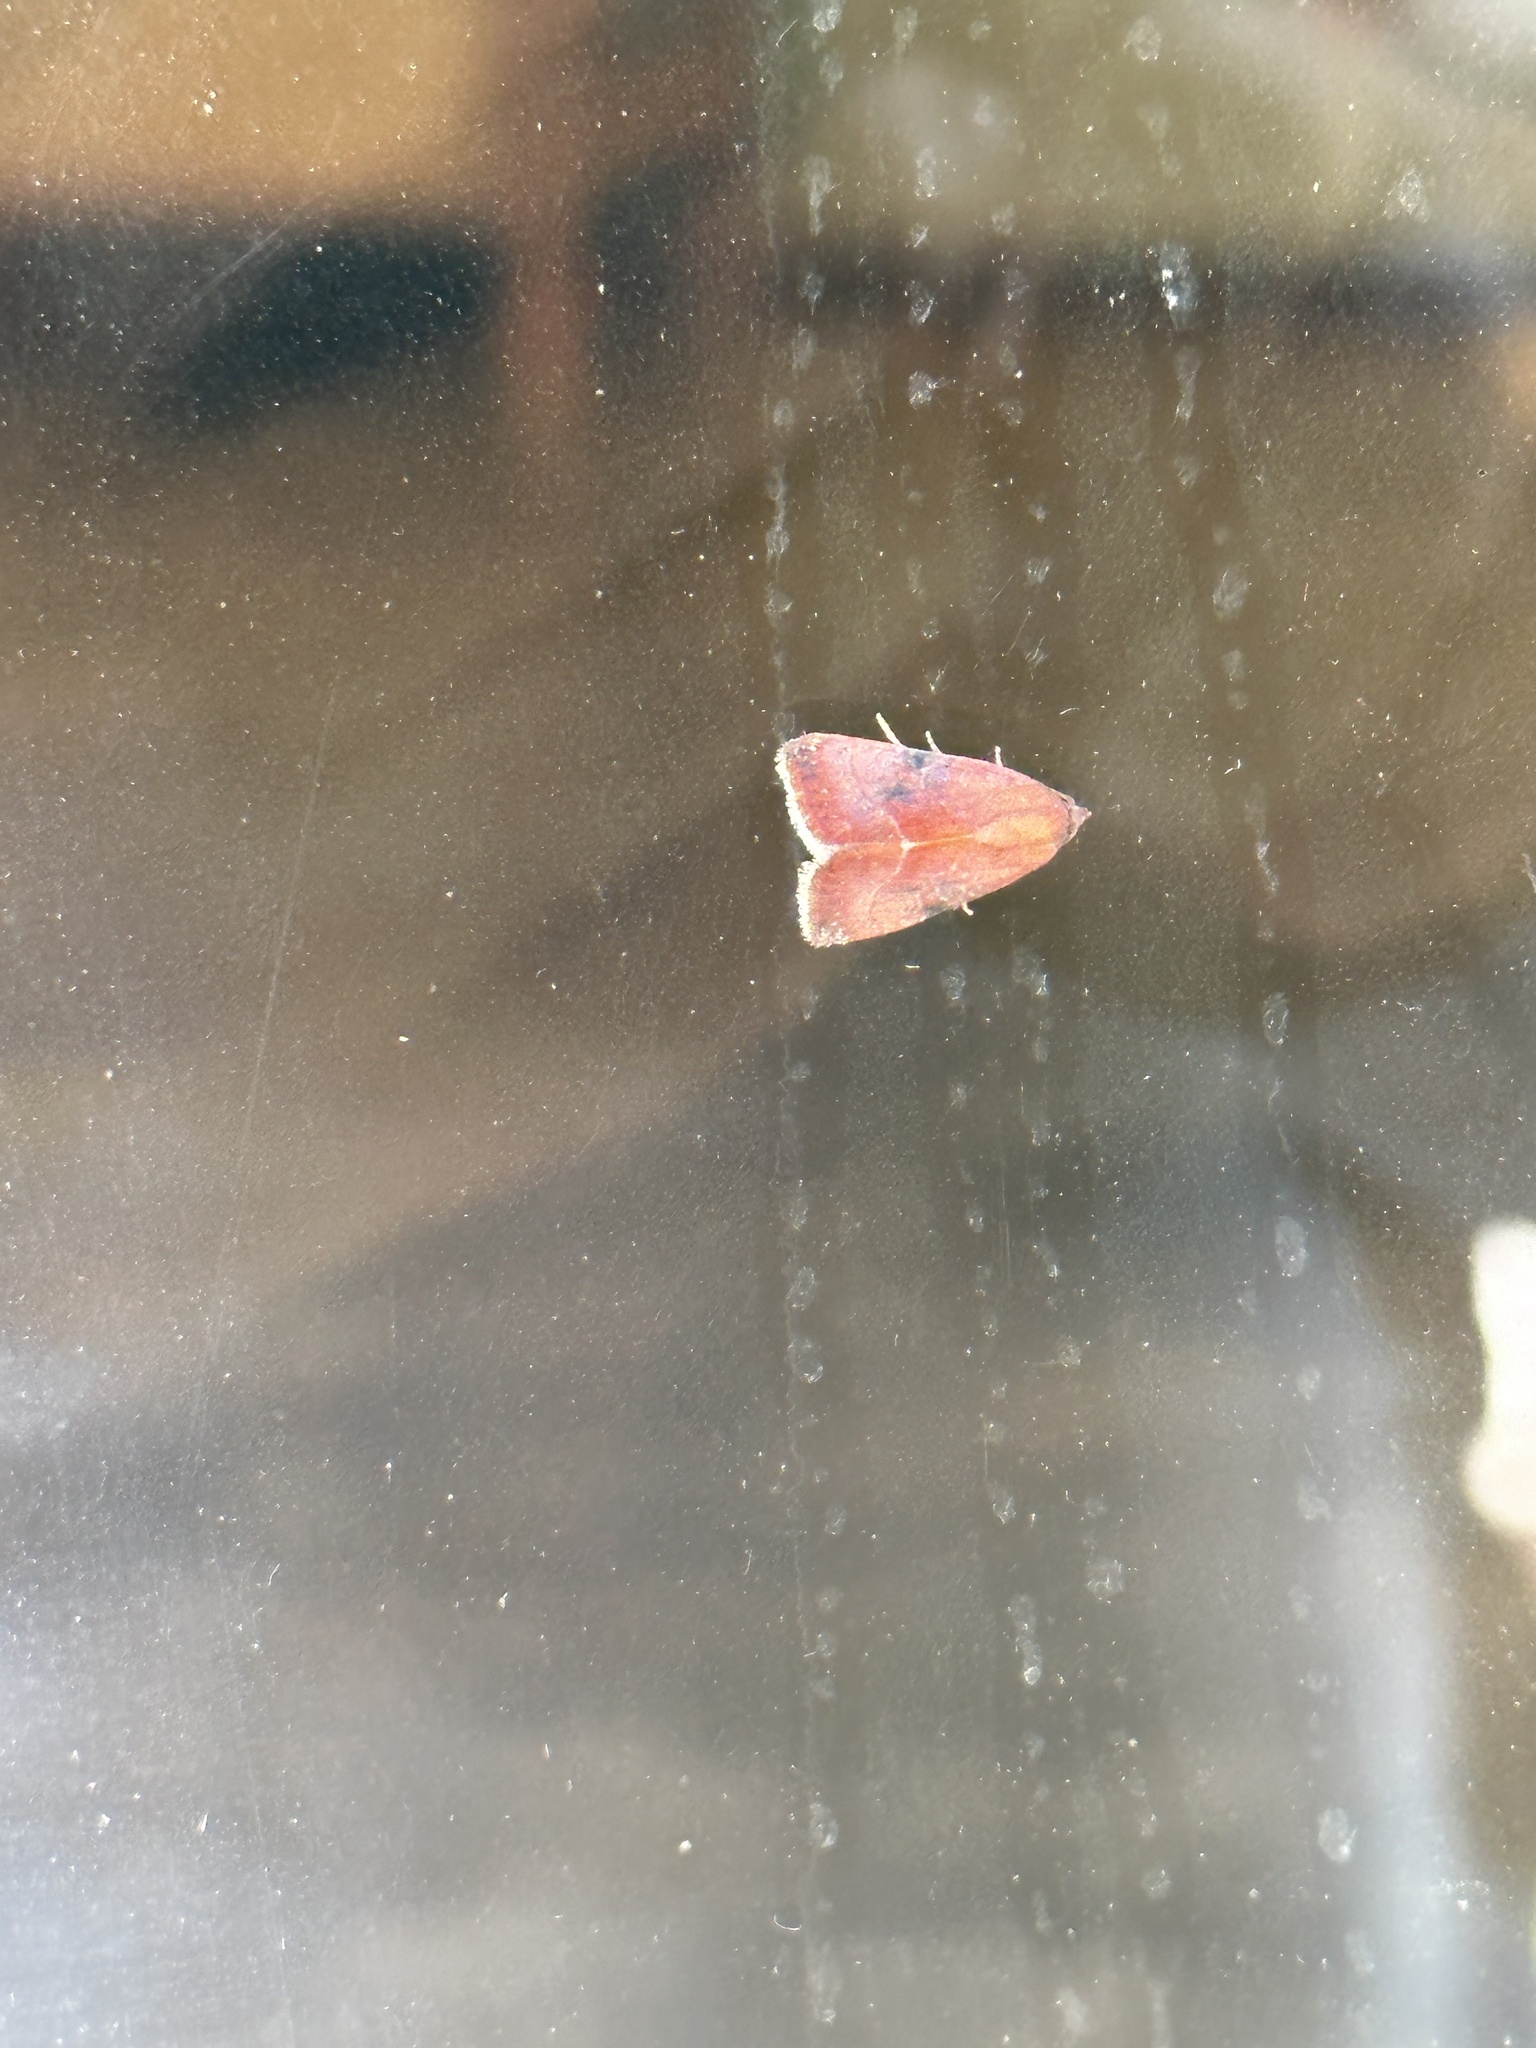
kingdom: Animalia
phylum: Arthropoda
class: Insecta
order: Lepidoptera
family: Noctuidae
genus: Galgula
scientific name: Galgula partita
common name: Wedgeling
